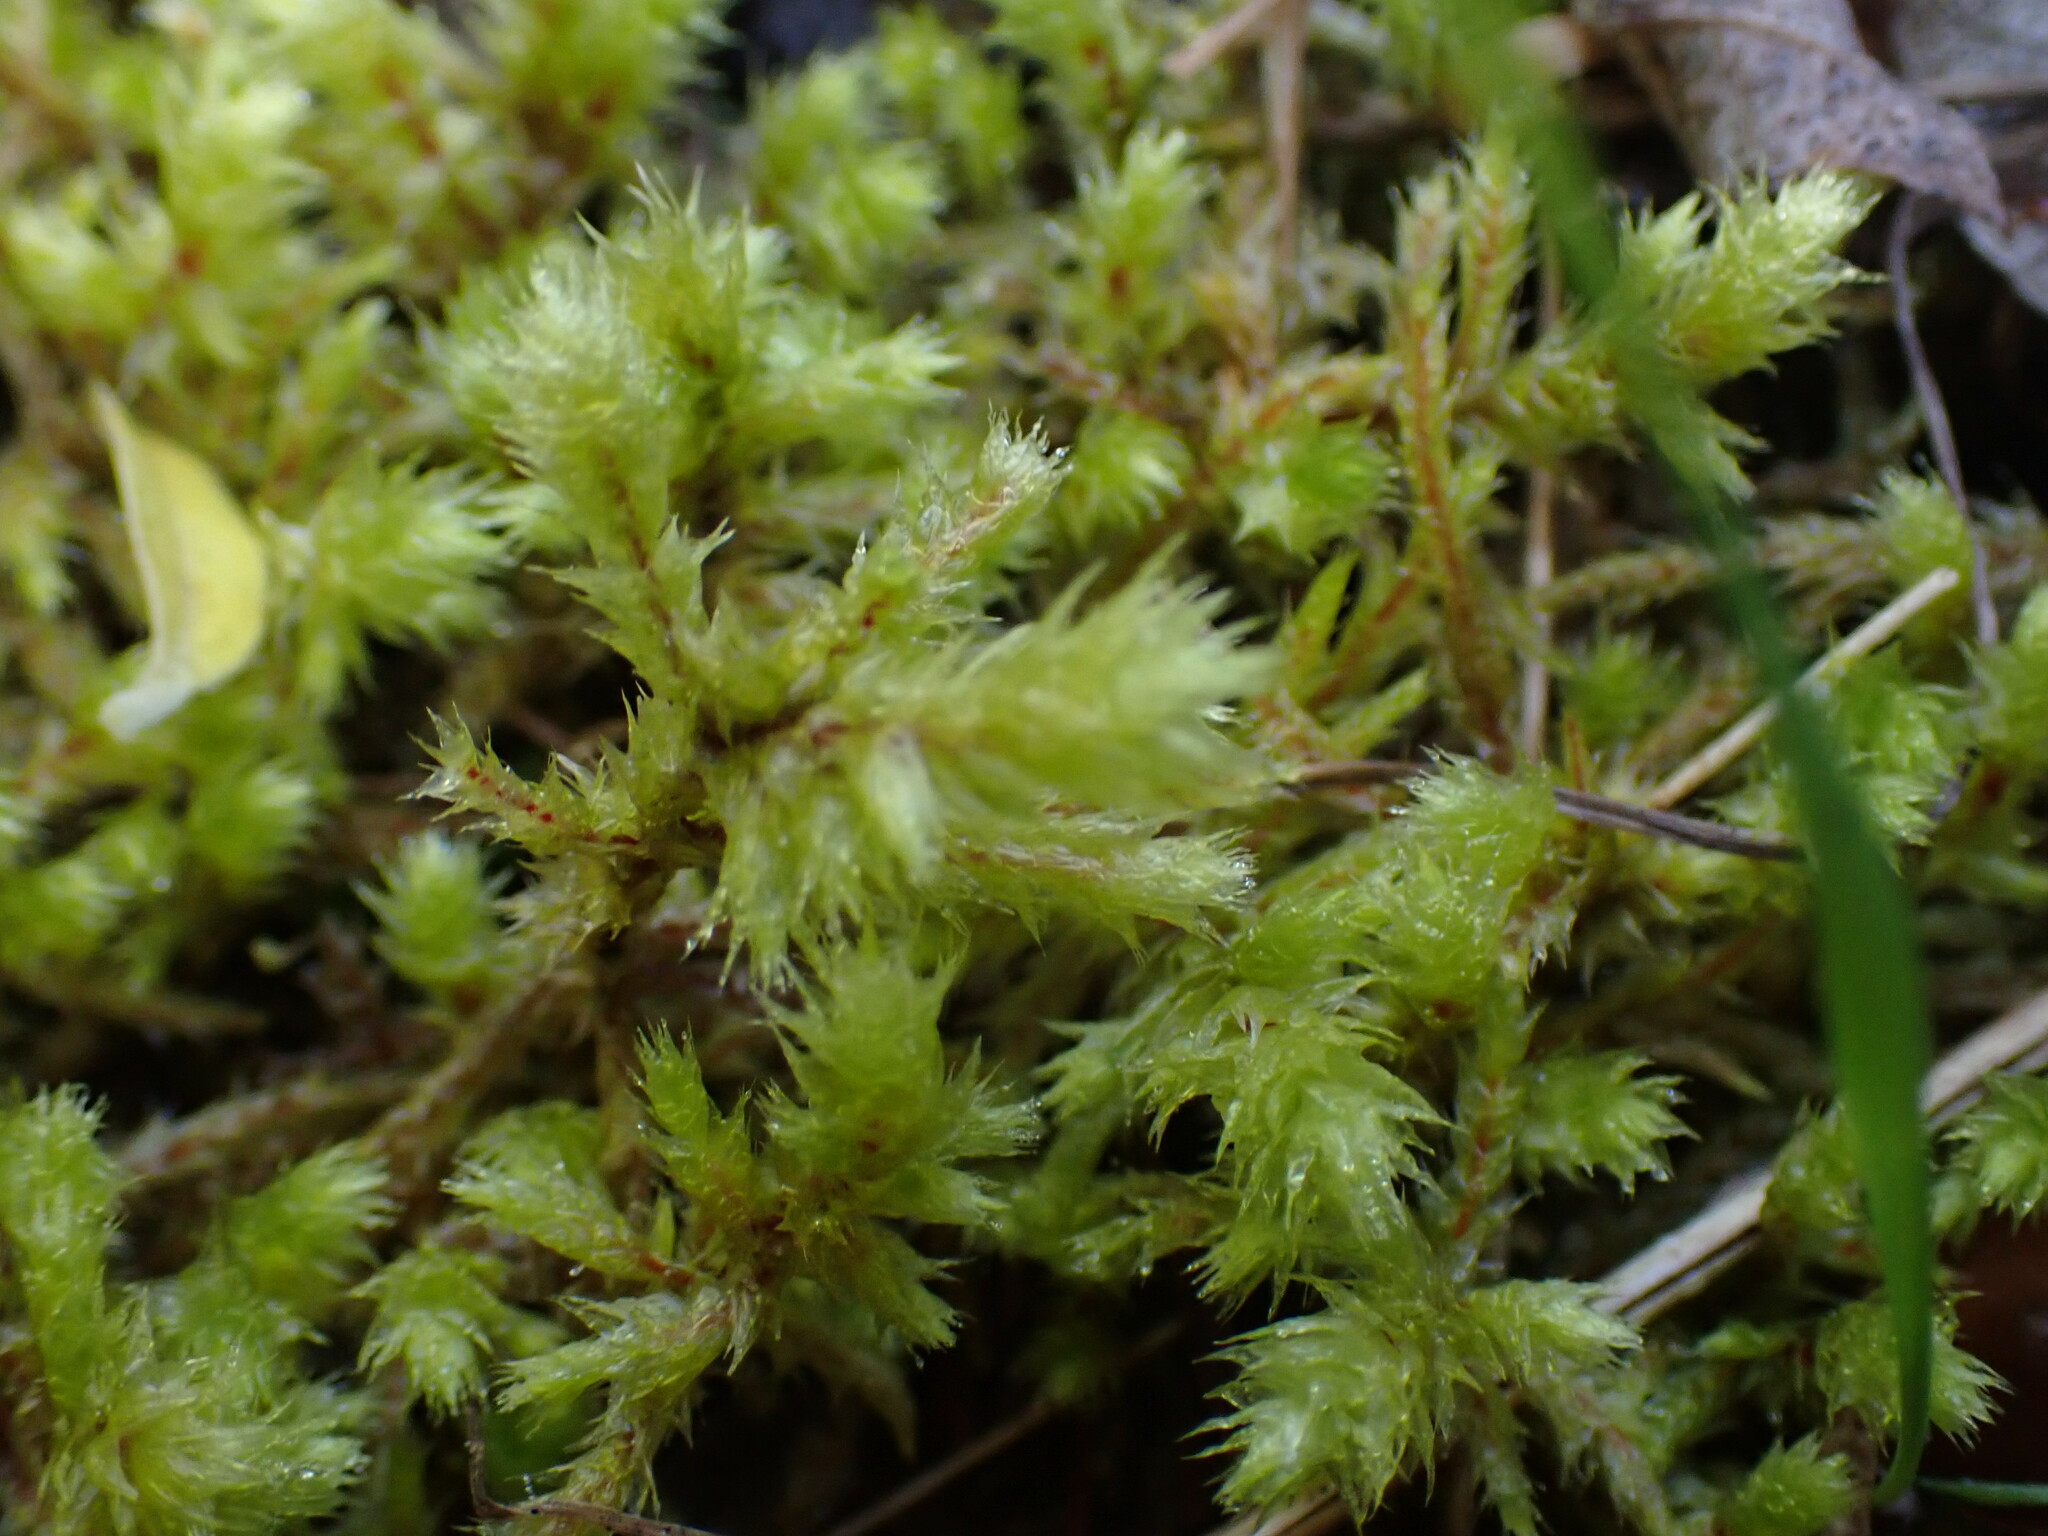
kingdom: Plantae
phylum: Bryophyta
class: Bryopsida
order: Hypnales
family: Hylocomiaceae
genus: Hylocomiadelphus
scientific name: Hylocomiadelphus triquetrus
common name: Rough goose neck moss
